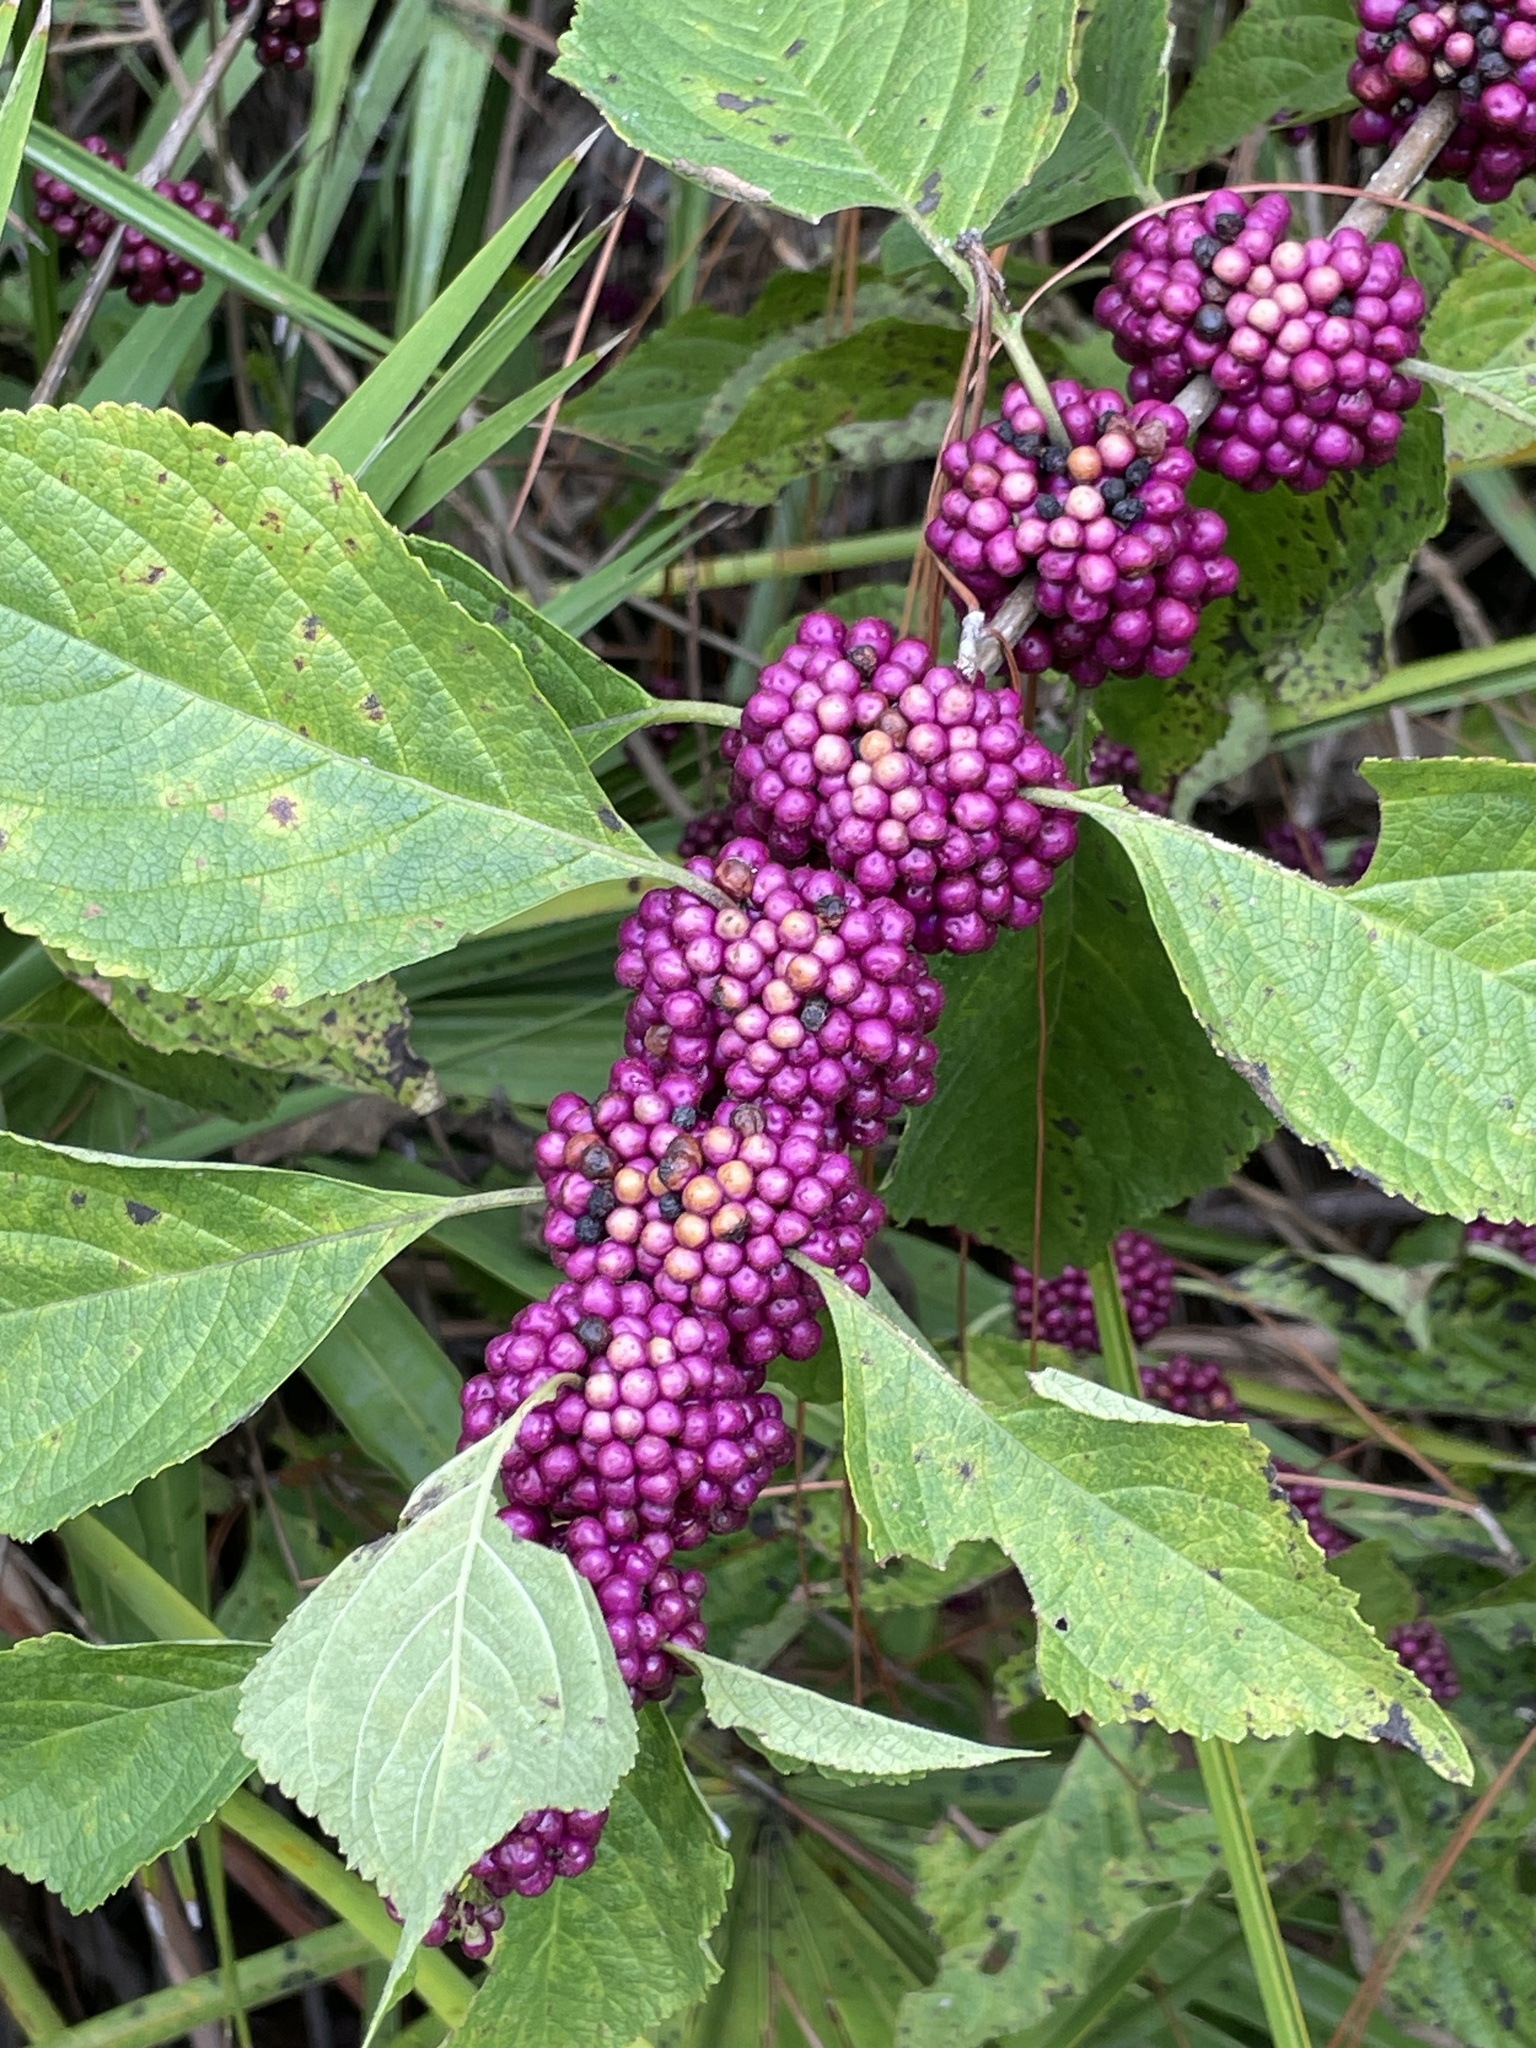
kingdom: Plantae
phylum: Tracheophyta
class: Magnoliopsida
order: Lamiales
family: Lamiaceae
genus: Callicarpa
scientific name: Callicarpa americana
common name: American beautyberry
